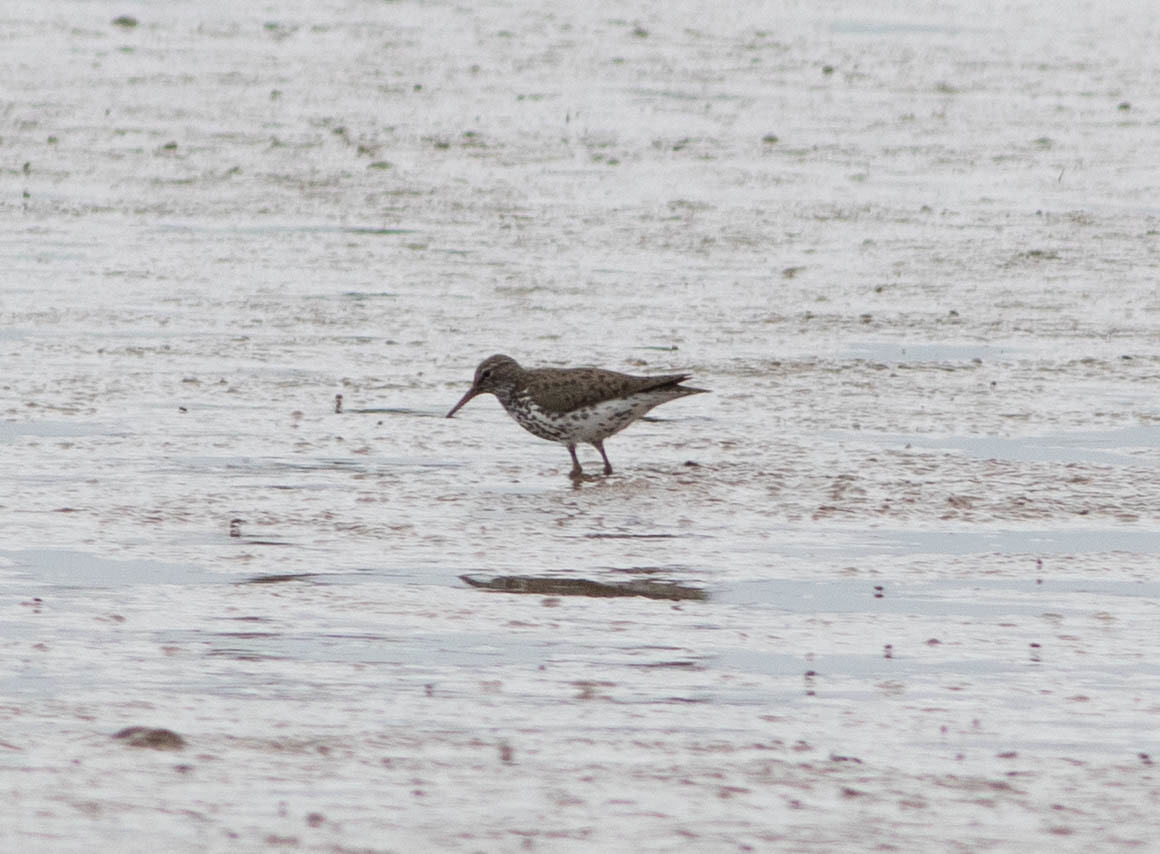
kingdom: Animalia
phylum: Chordata
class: Aves
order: Charadriiformes
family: Scolopacidae
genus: Actitis
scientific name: Actitis macularius
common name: Spotted sandpiper
